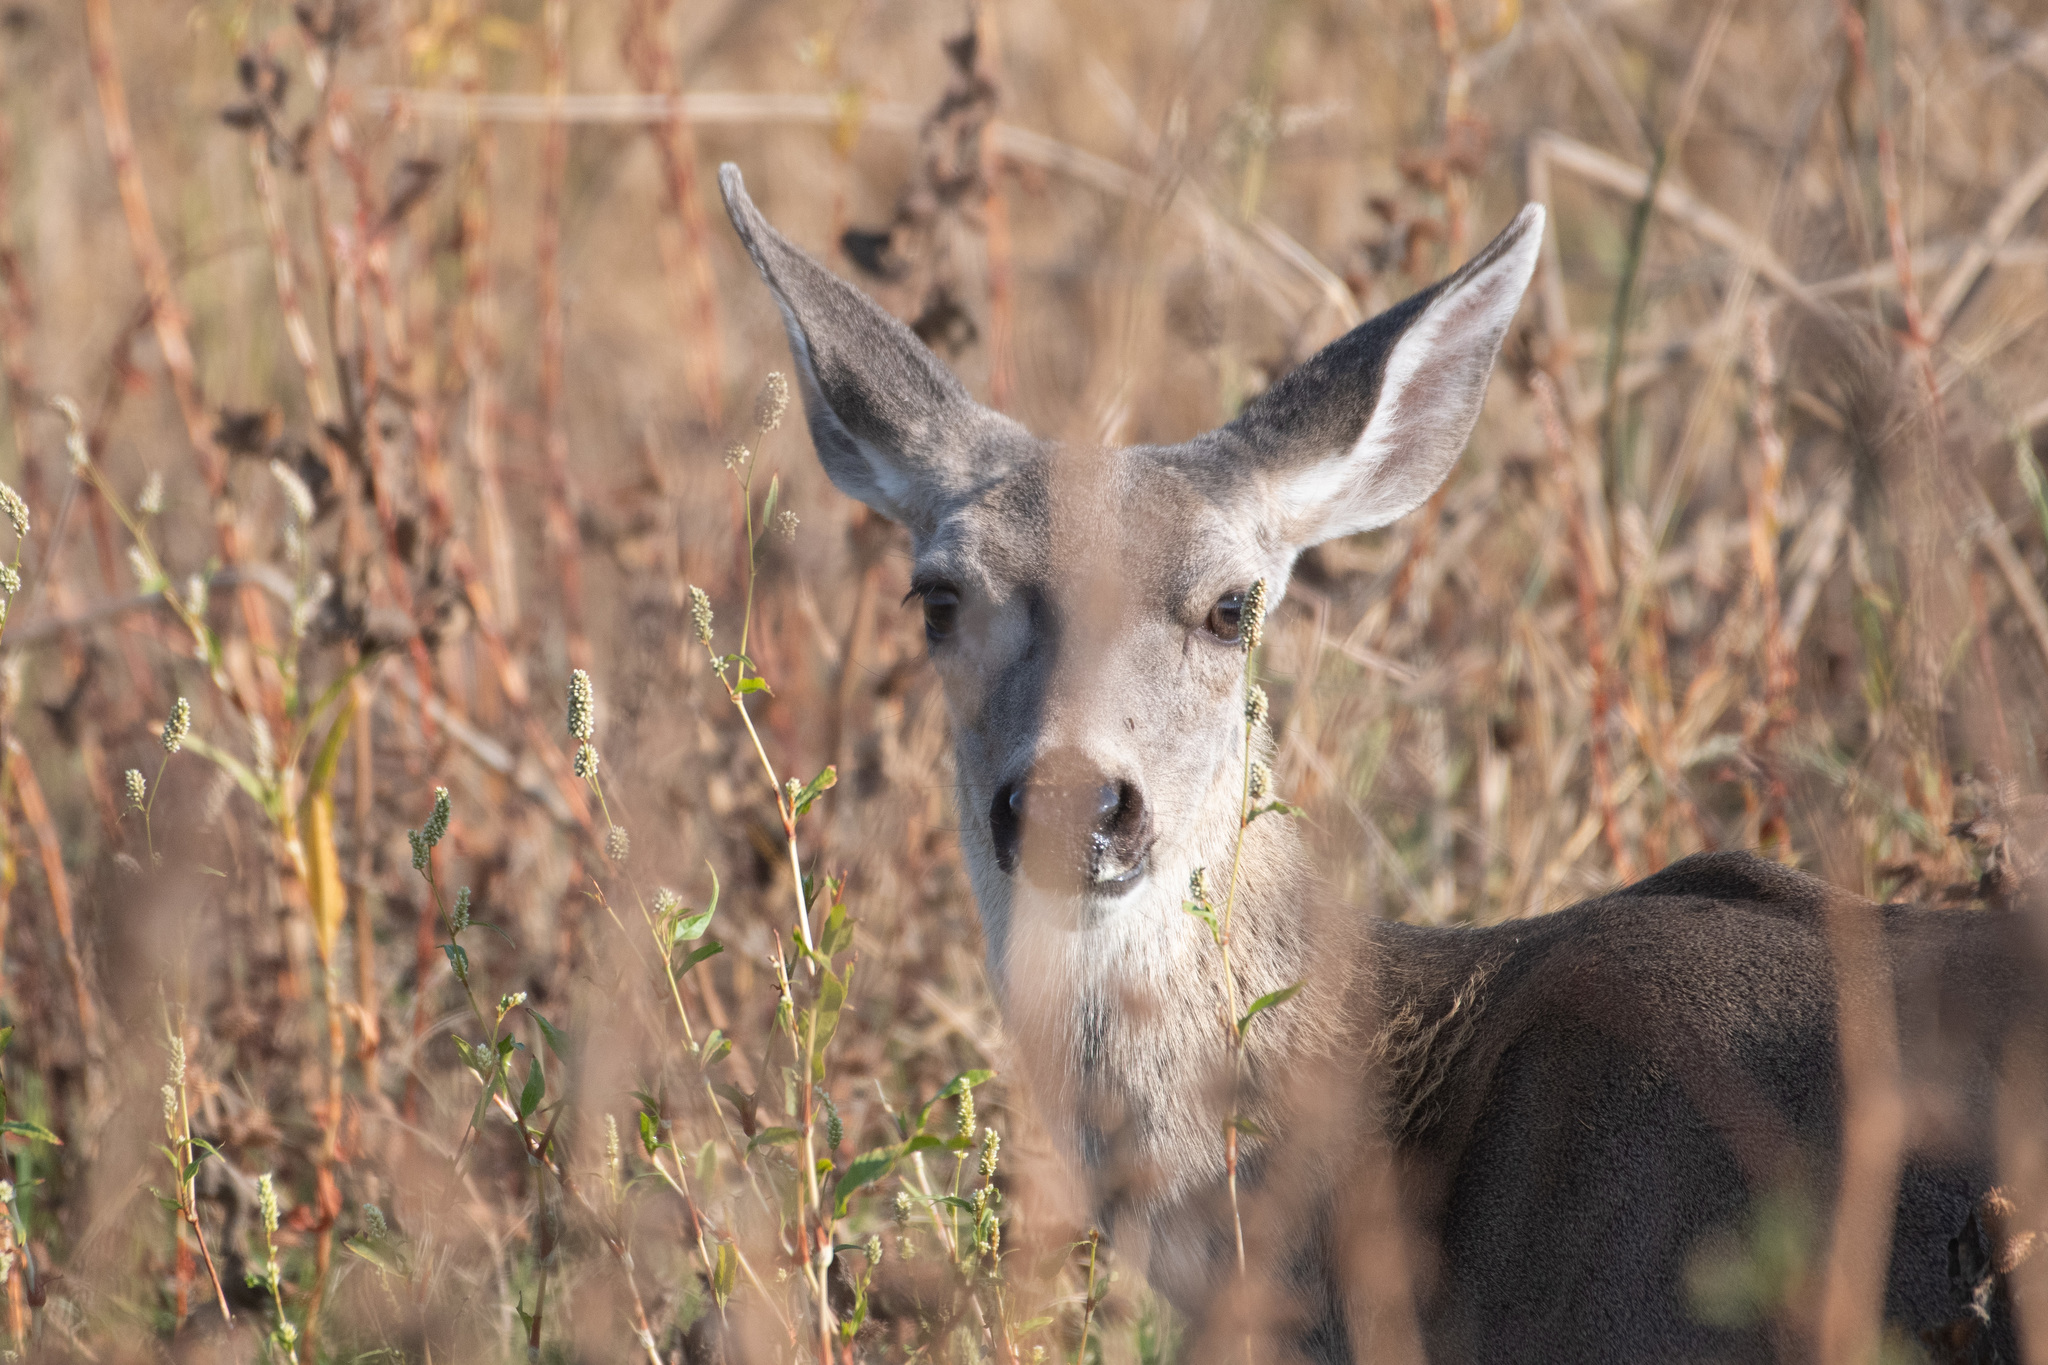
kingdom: Animalia
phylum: Chordata
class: Mammalia
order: Artiodactyla
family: Cervidae
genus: Odocoileus
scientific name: Odocoileus hemionus
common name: Mule deer
